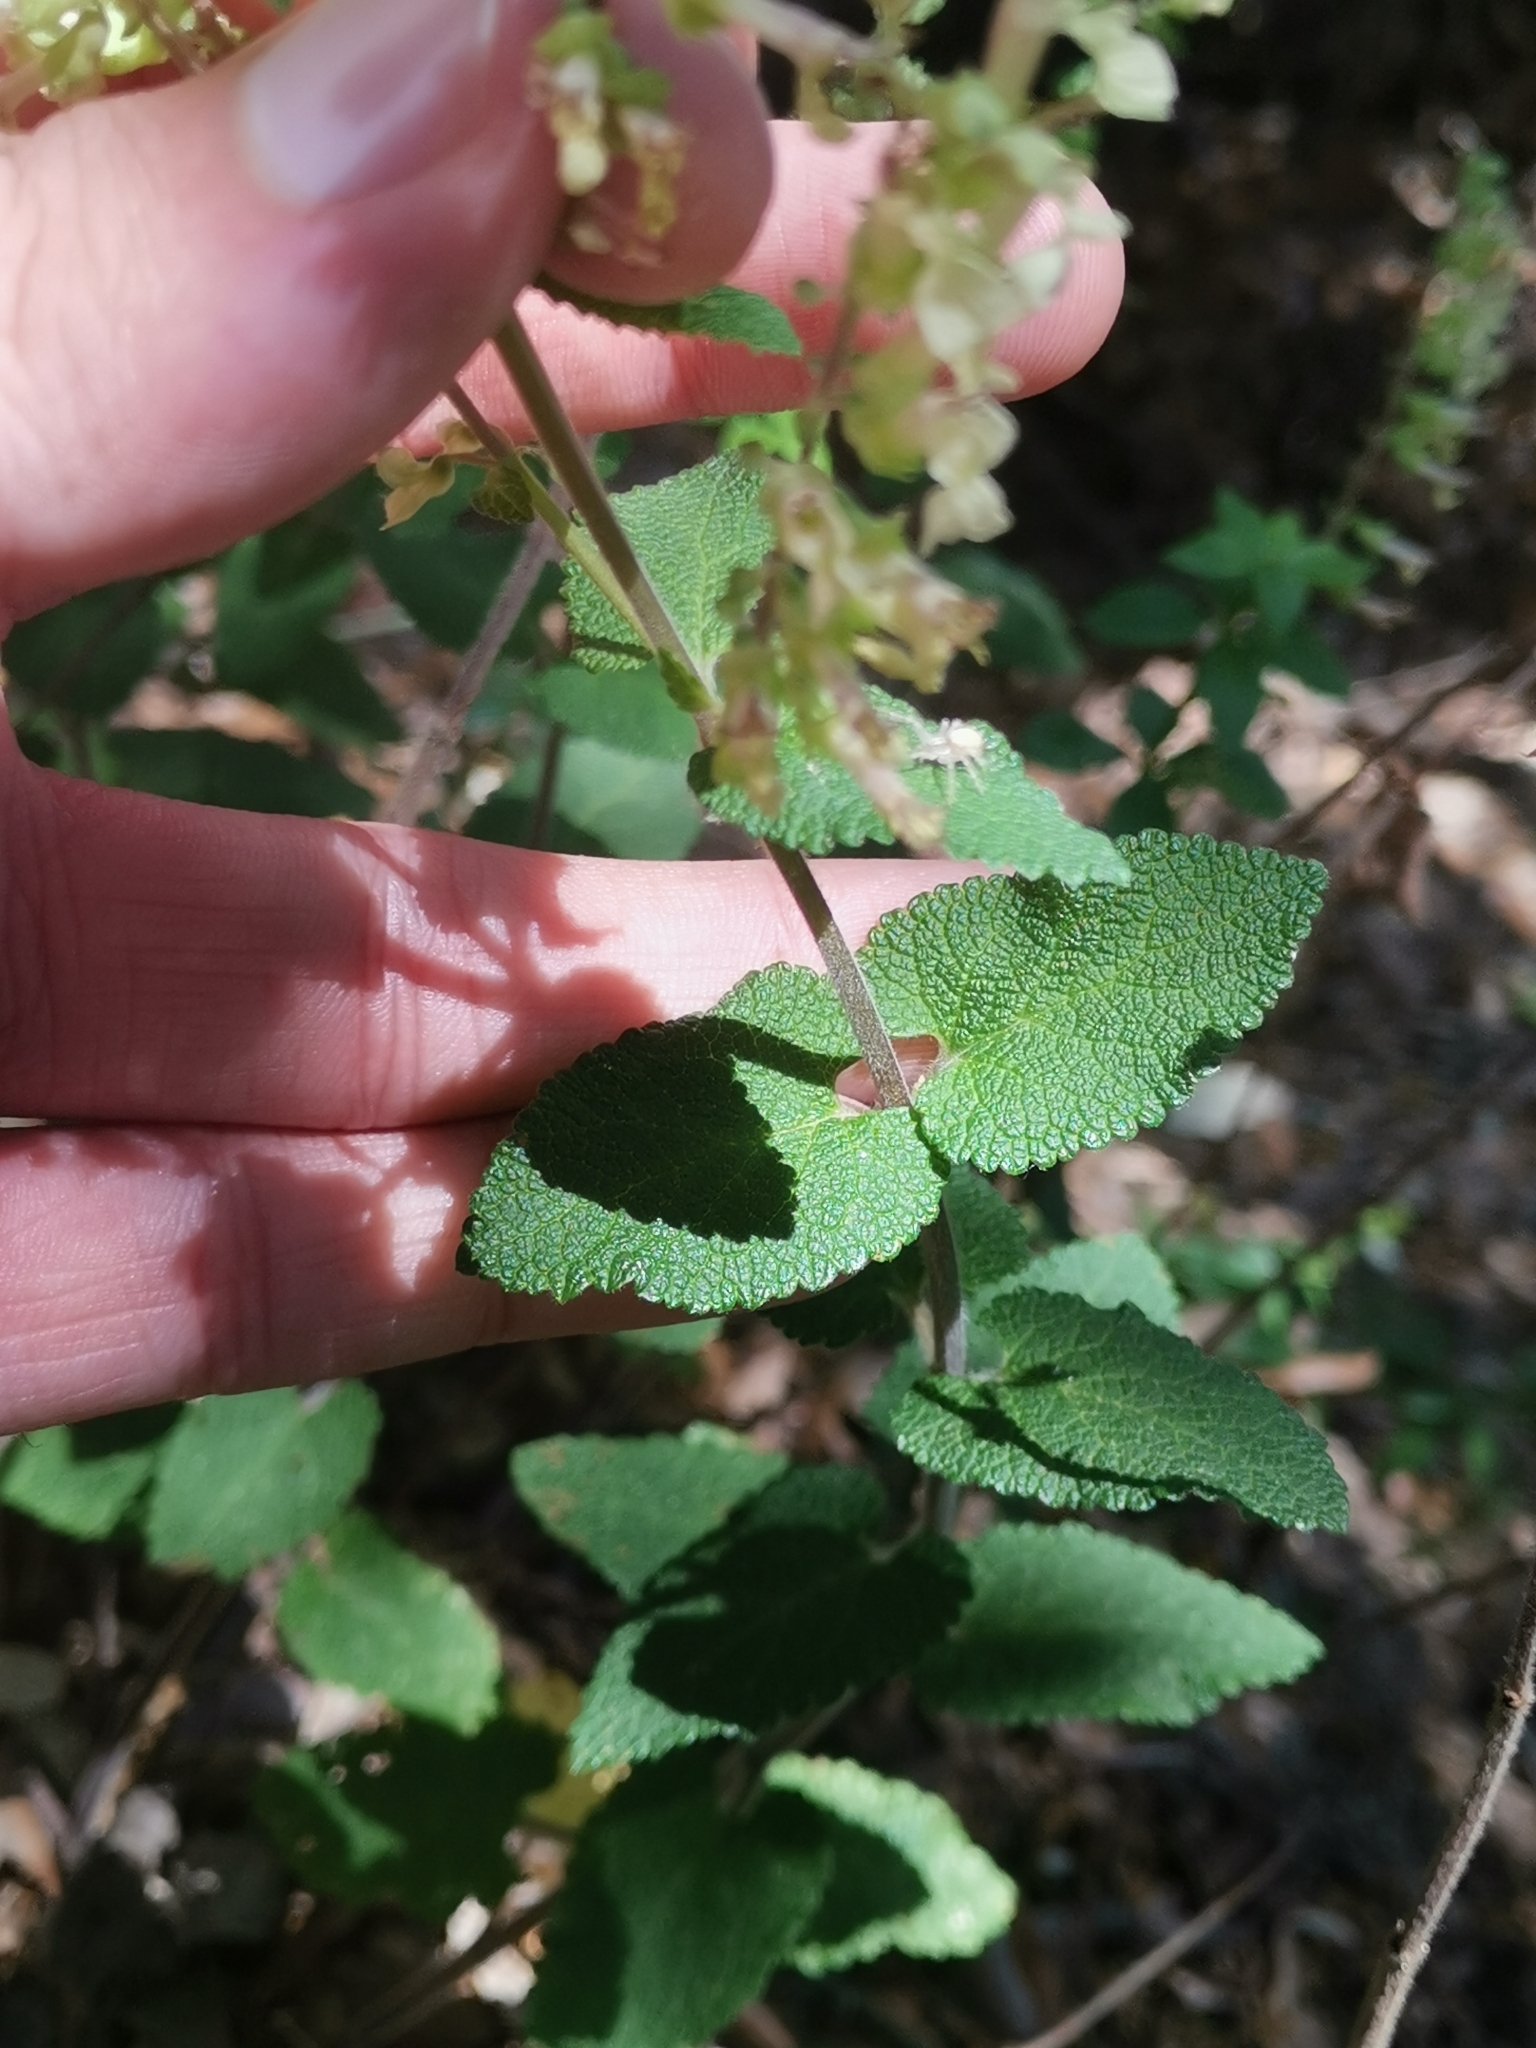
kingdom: Plantae
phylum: Tracheophyta
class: Magnoliopsida
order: Lamiales
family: Lamiaceae
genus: Teucrium
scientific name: Teucrium scorodonia
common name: Woodland germander
